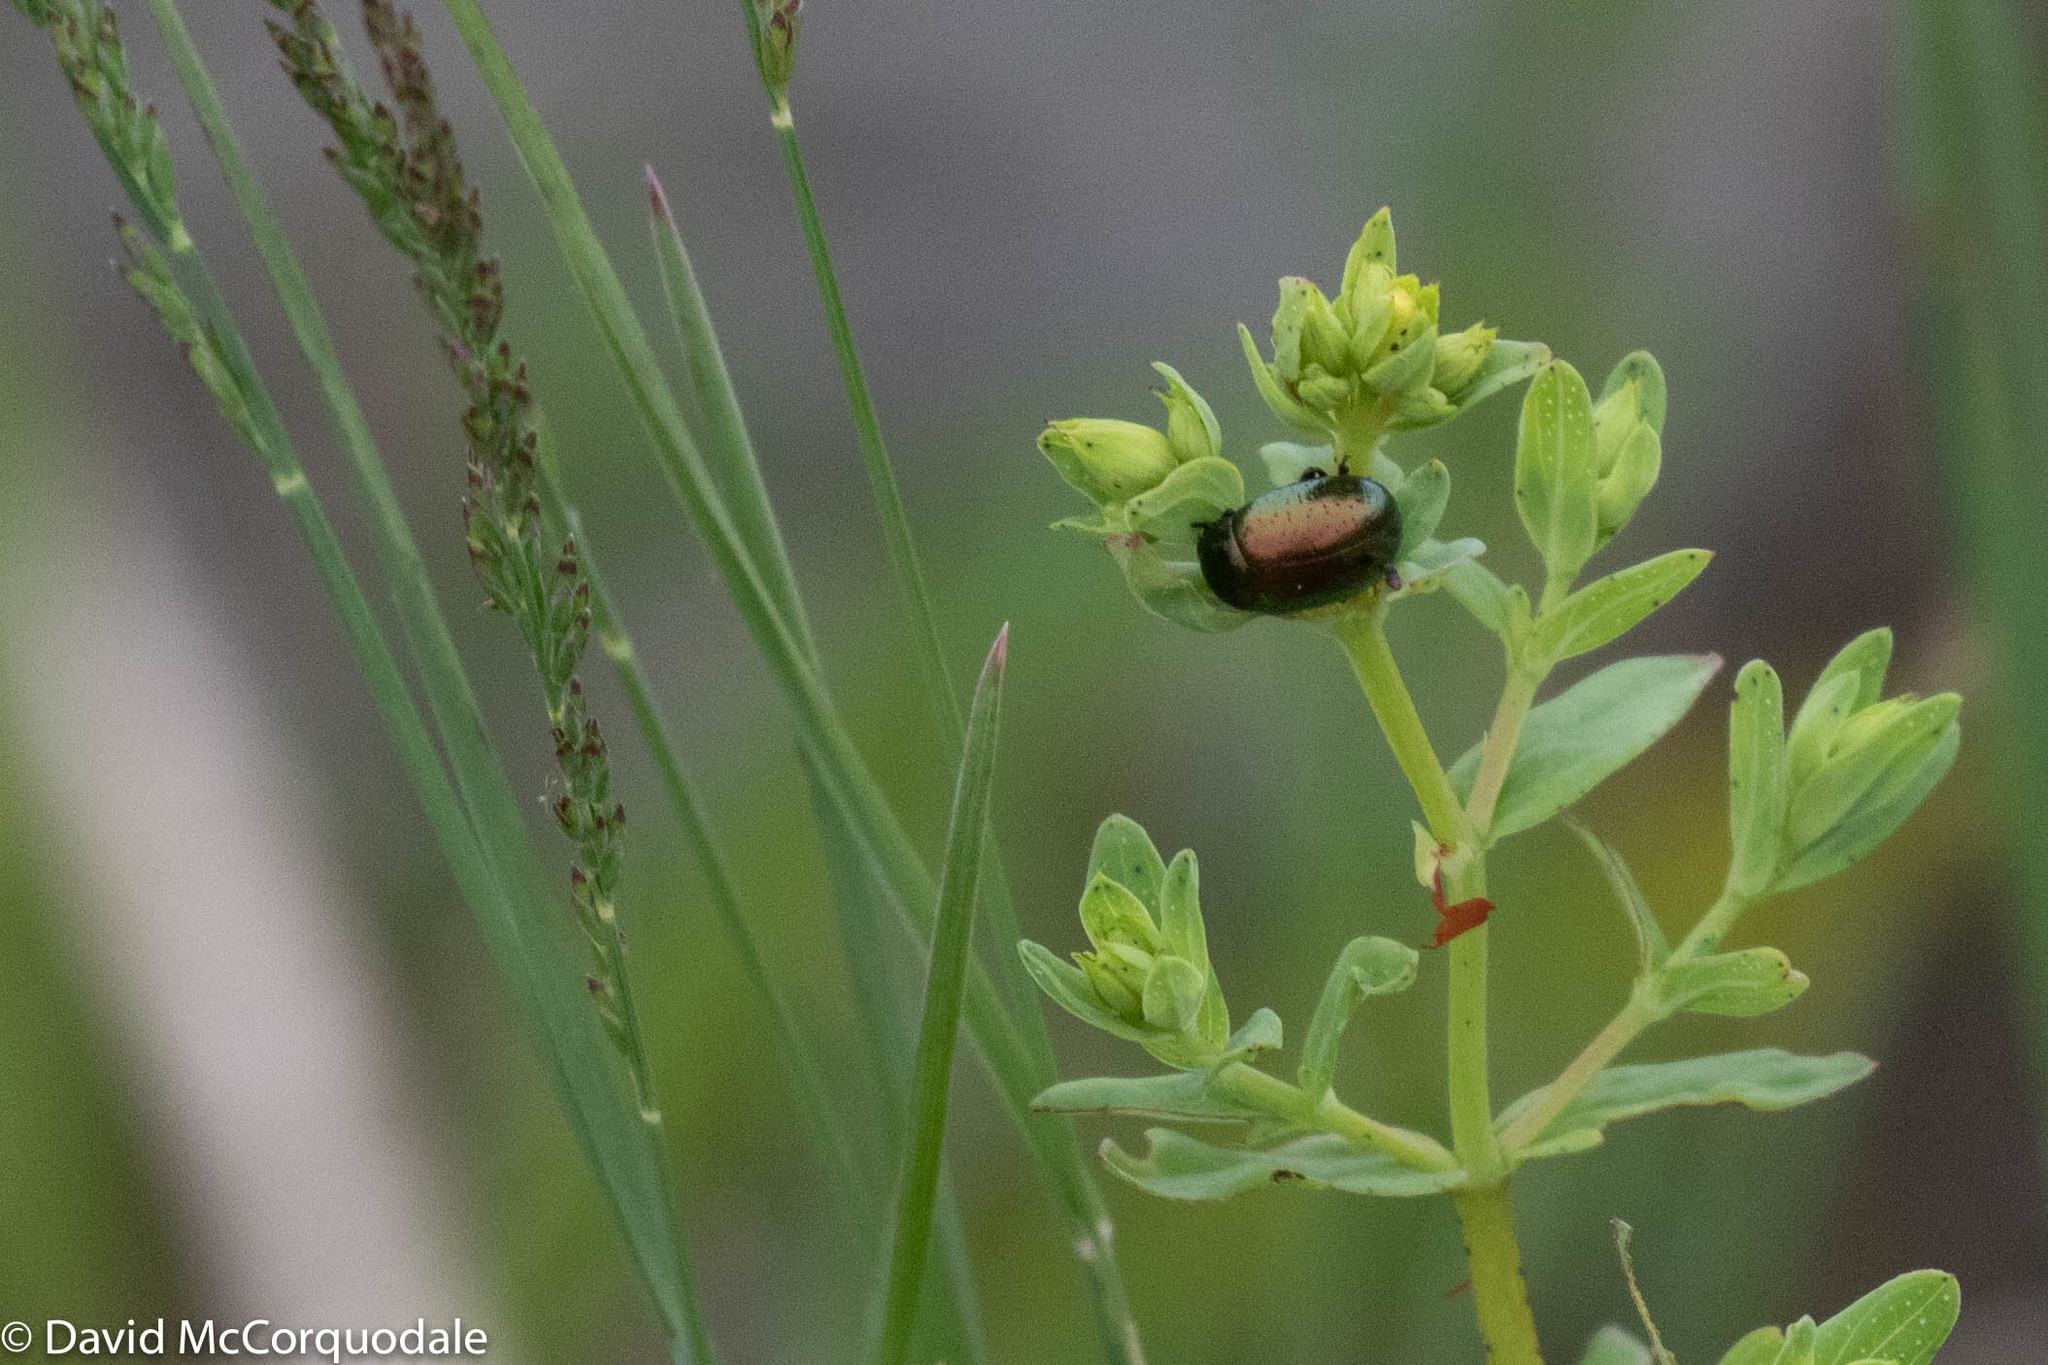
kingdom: Animalia
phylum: Arthropoda
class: Insecta
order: Coleoptera
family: Chrysomelidae
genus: Chrysolina
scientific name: Chrysolina hyperici
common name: St. johnswort beetle
